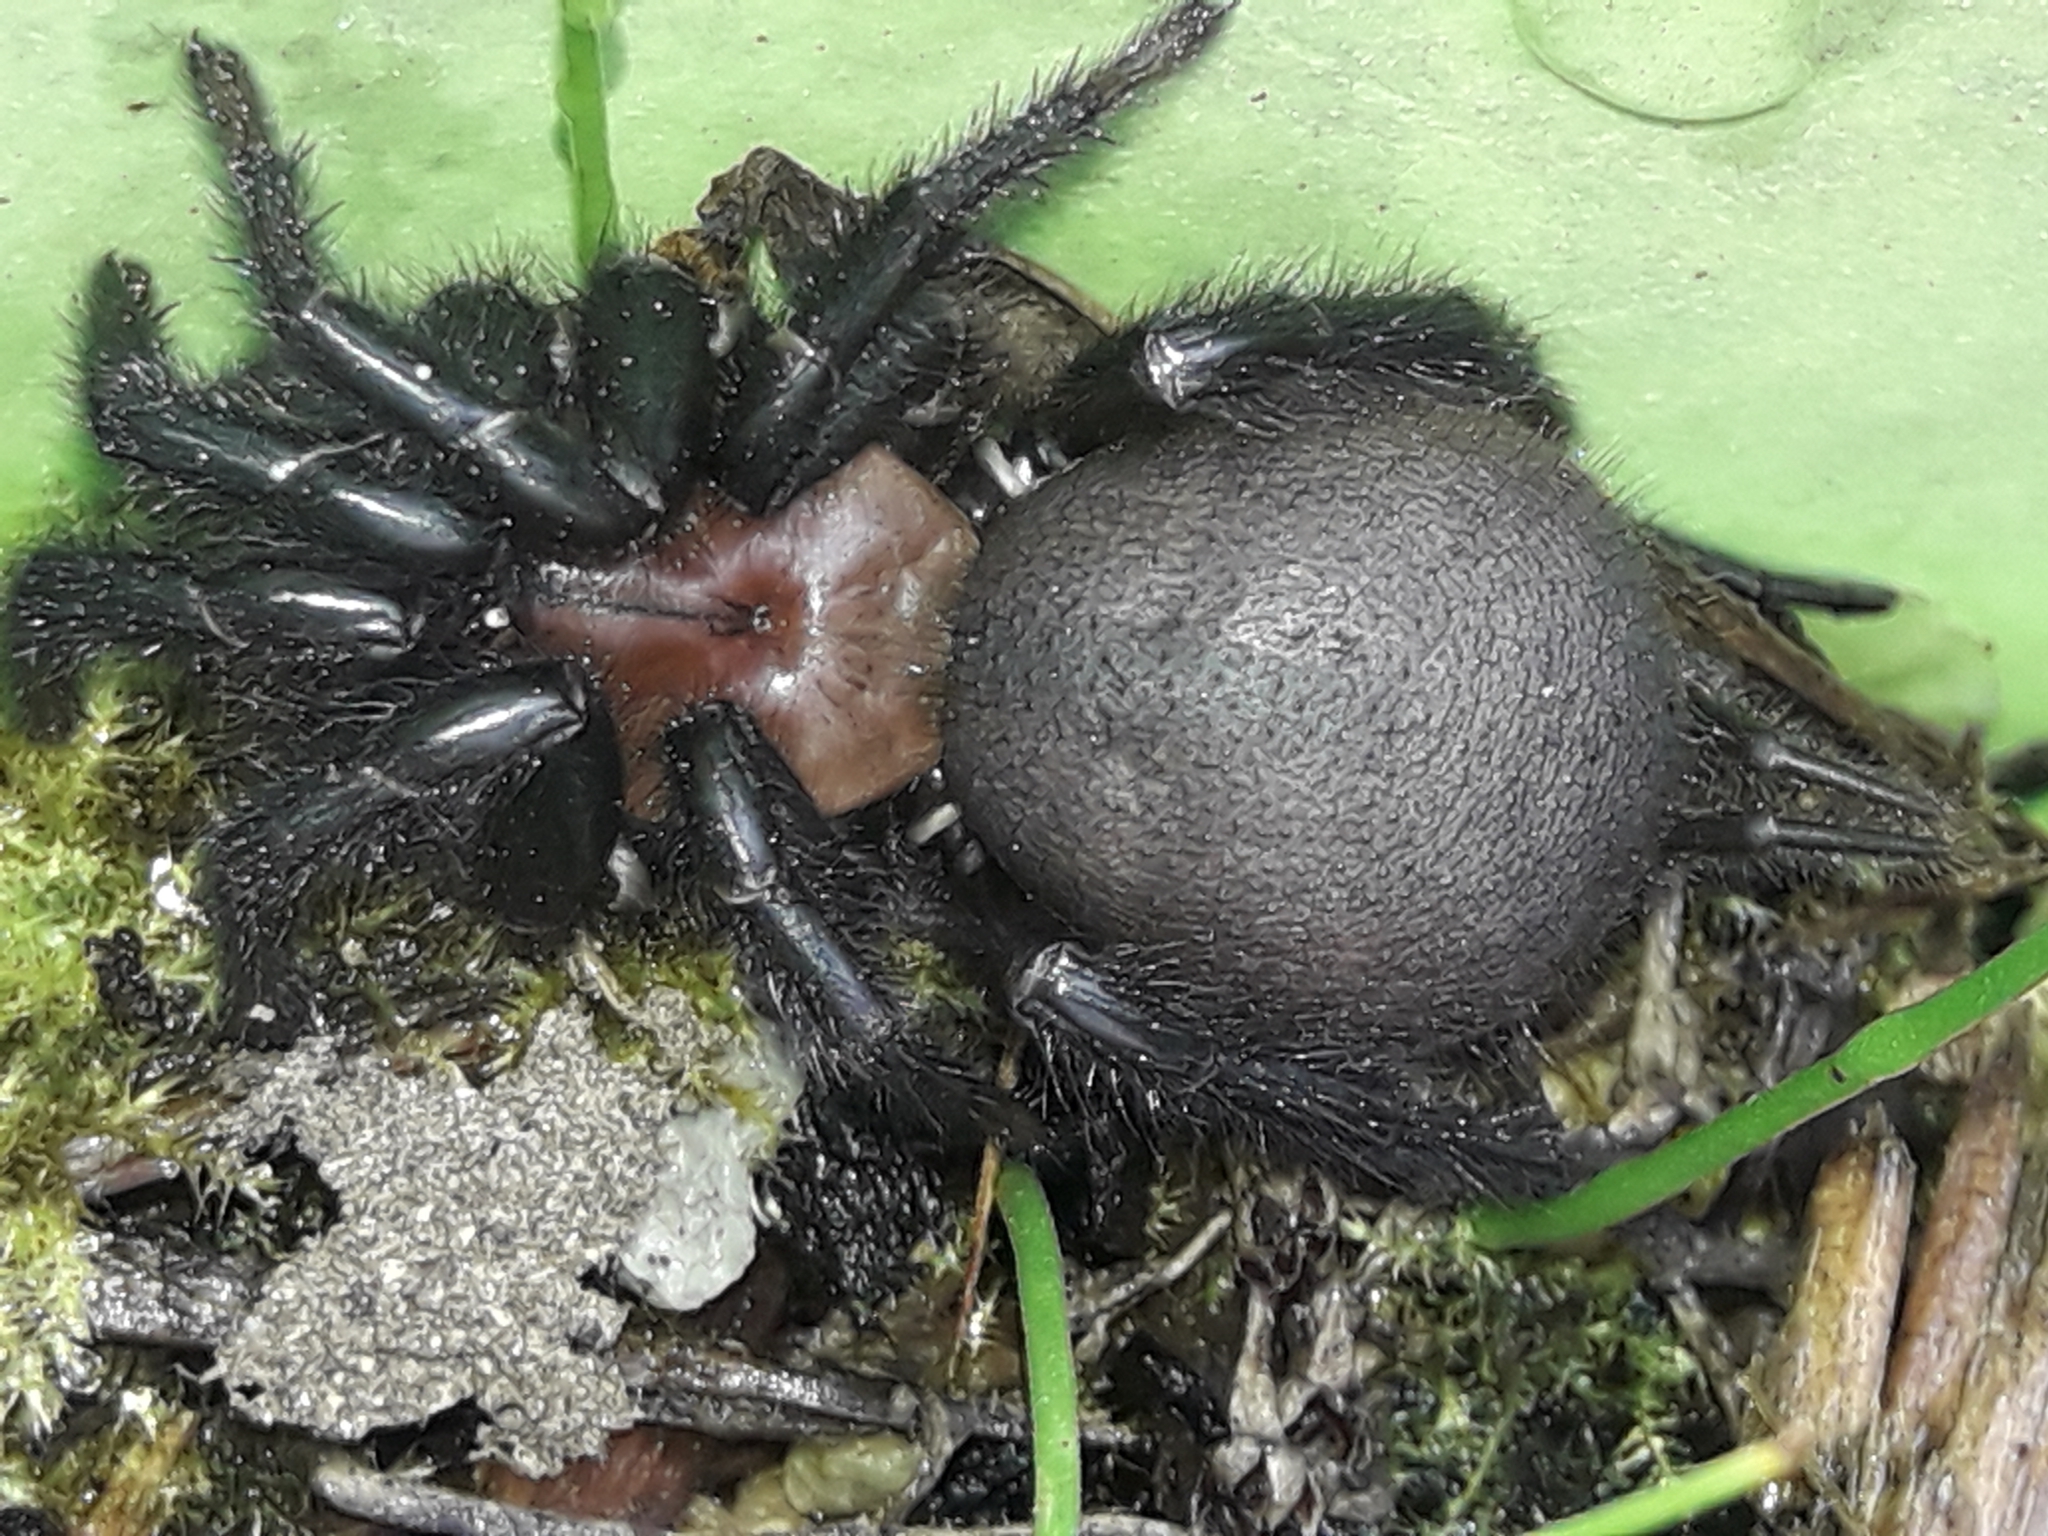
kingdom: Animalia
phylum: Arthropoda
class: Arachnida
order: Araneae
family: Porrhothelidae
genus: Porrhothele
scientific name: Porrhothele antipodiana
